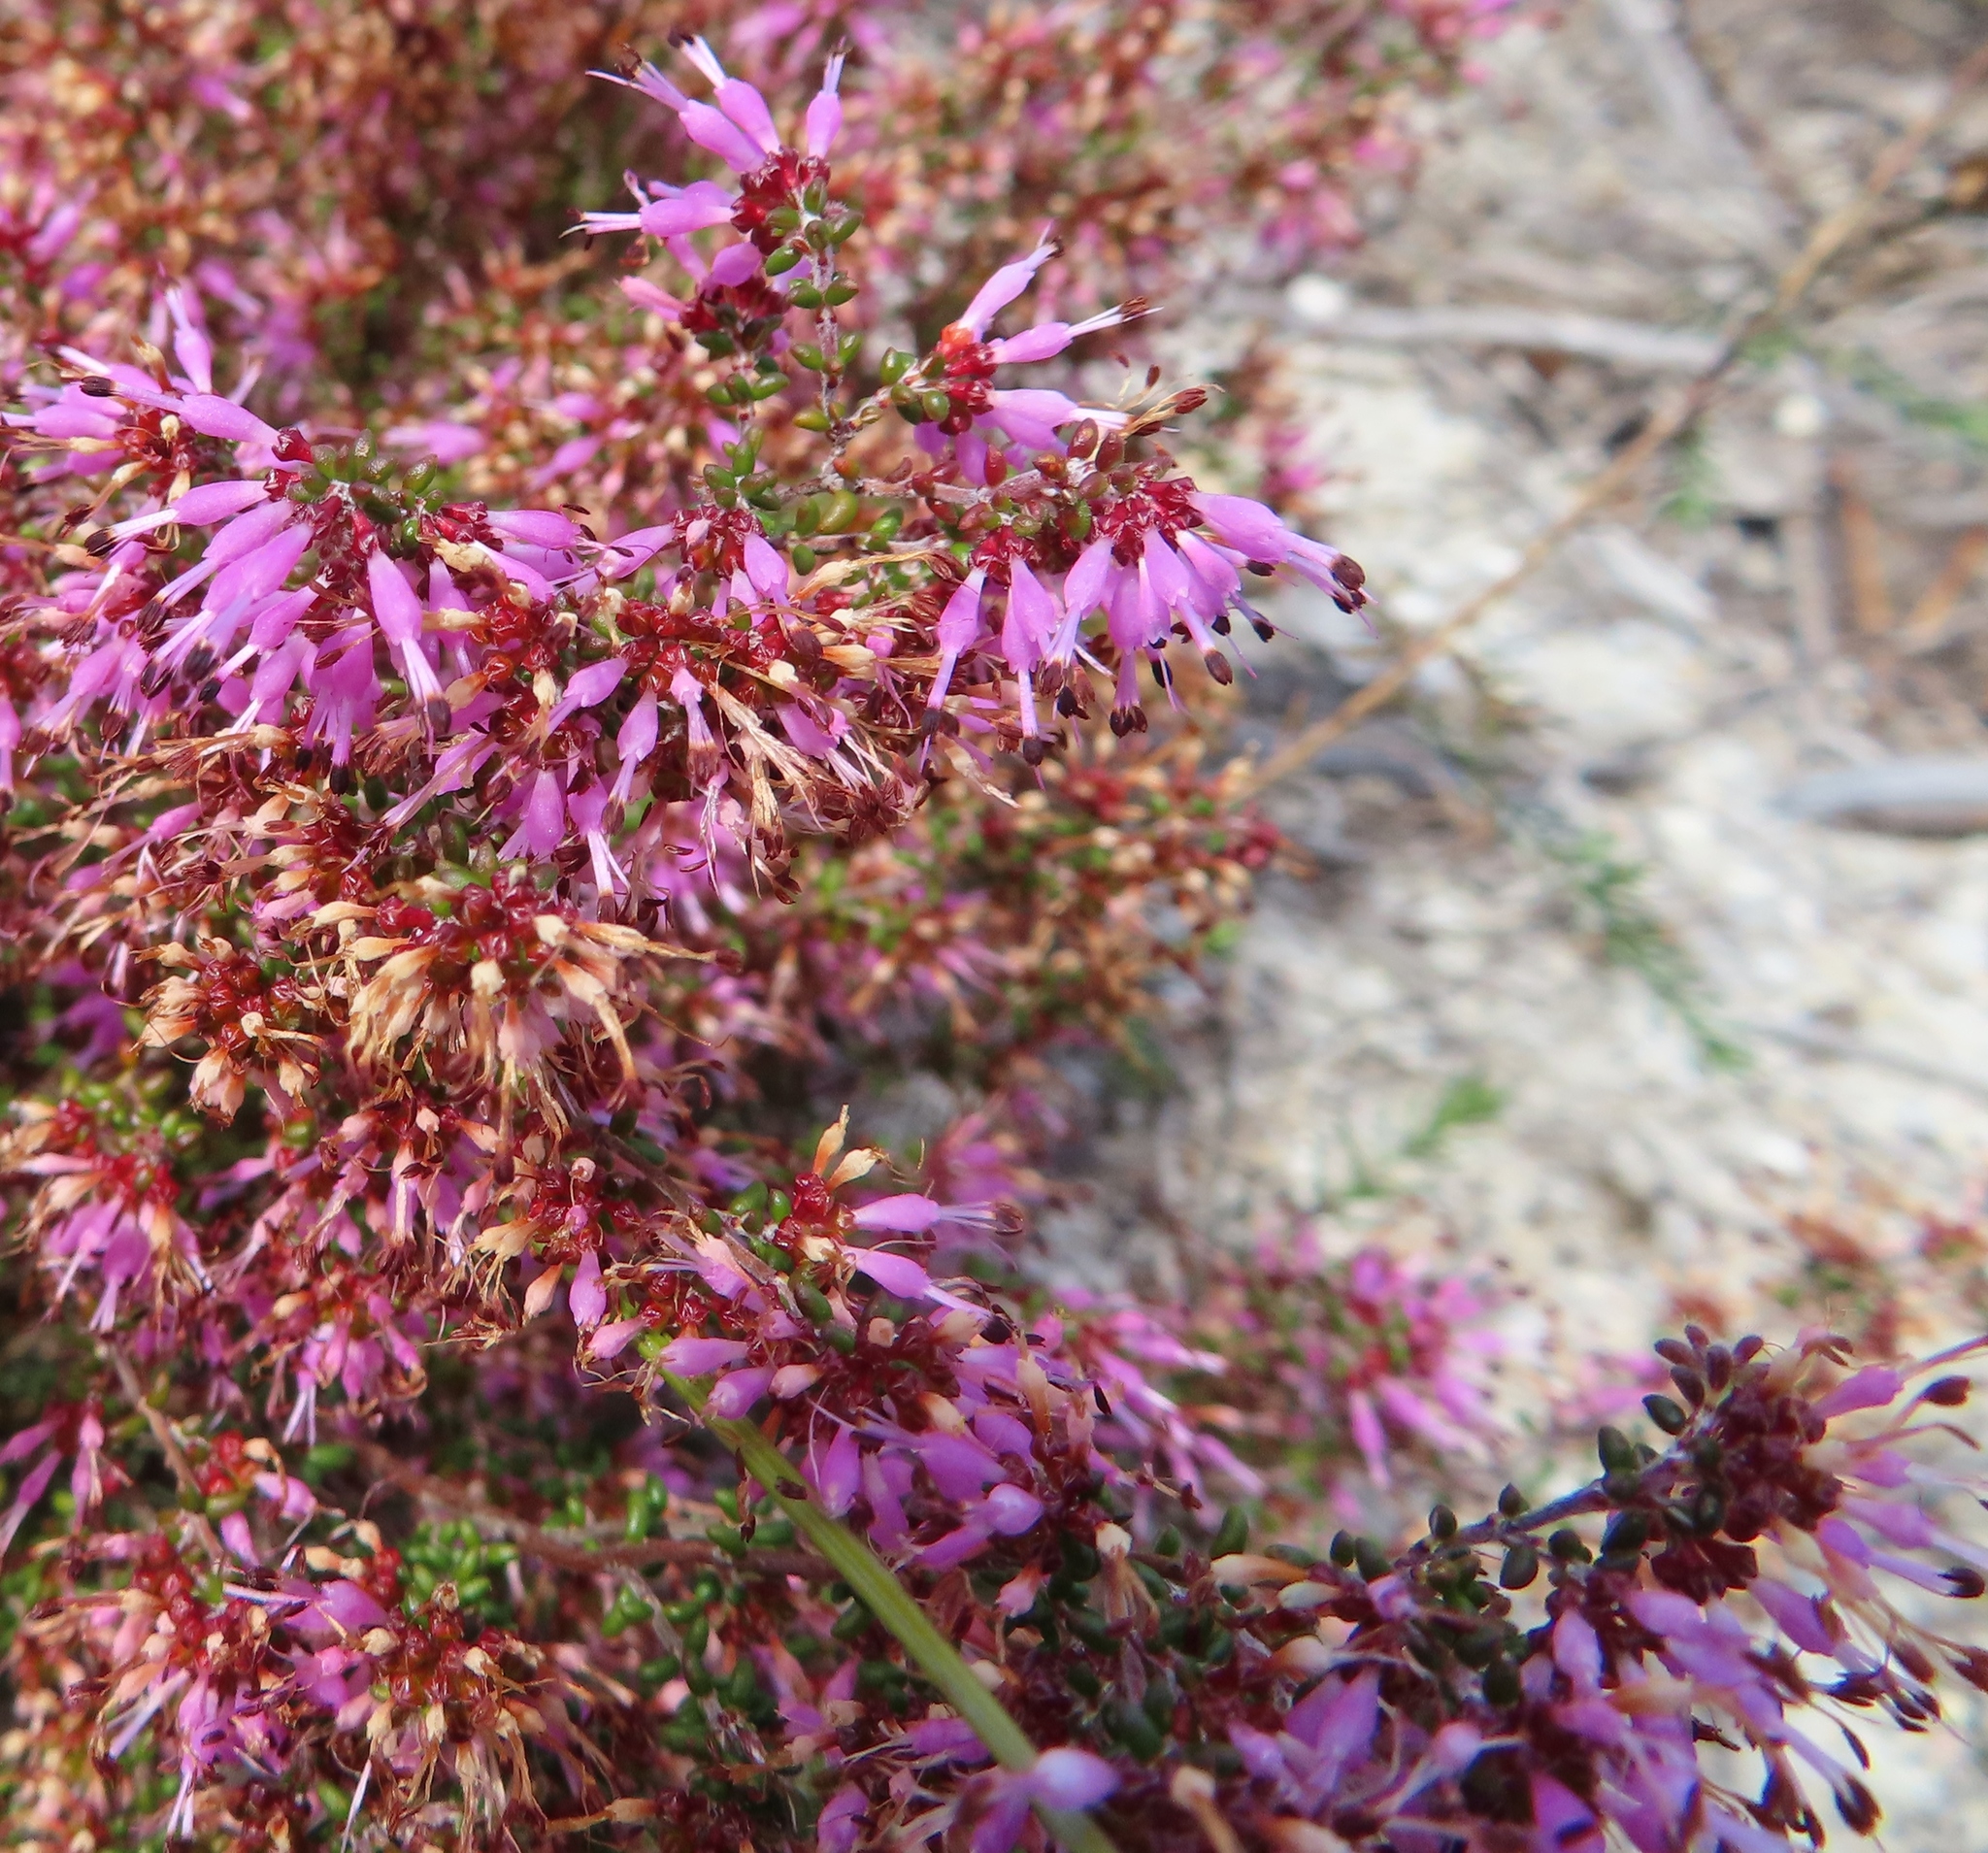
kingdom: Plantae
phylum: Tracheophyta
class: Magnoliopsida
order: Ericales
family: Ericaceae
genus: Erica
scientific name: Erica paucifolia
